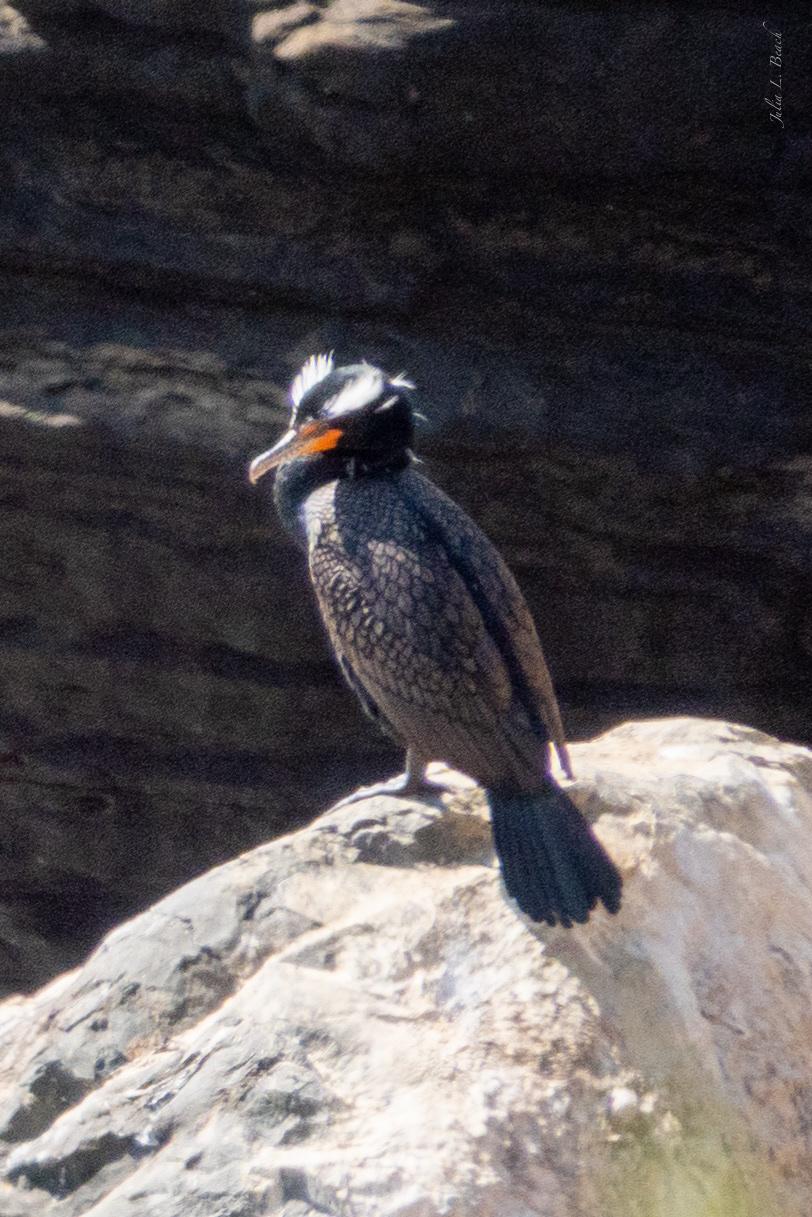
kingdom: Animalia
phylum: Chordata
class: Aves
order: Suliformes
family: Phalacrocoracidae
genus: Phalacrocorax
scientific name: Phalacrocorax auritus
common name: Double-crested cormorant
